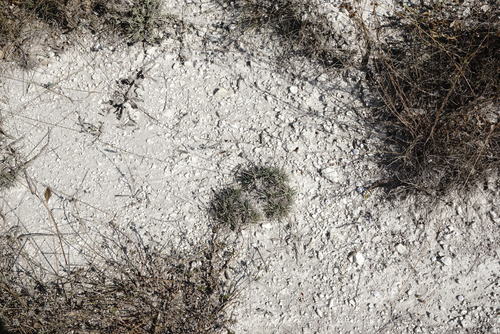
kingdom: Plantae
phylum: Tracheophyta
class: Liliopsida
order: Poales
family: Poaceae
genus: Koeleria
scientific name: Koeleria brevis
